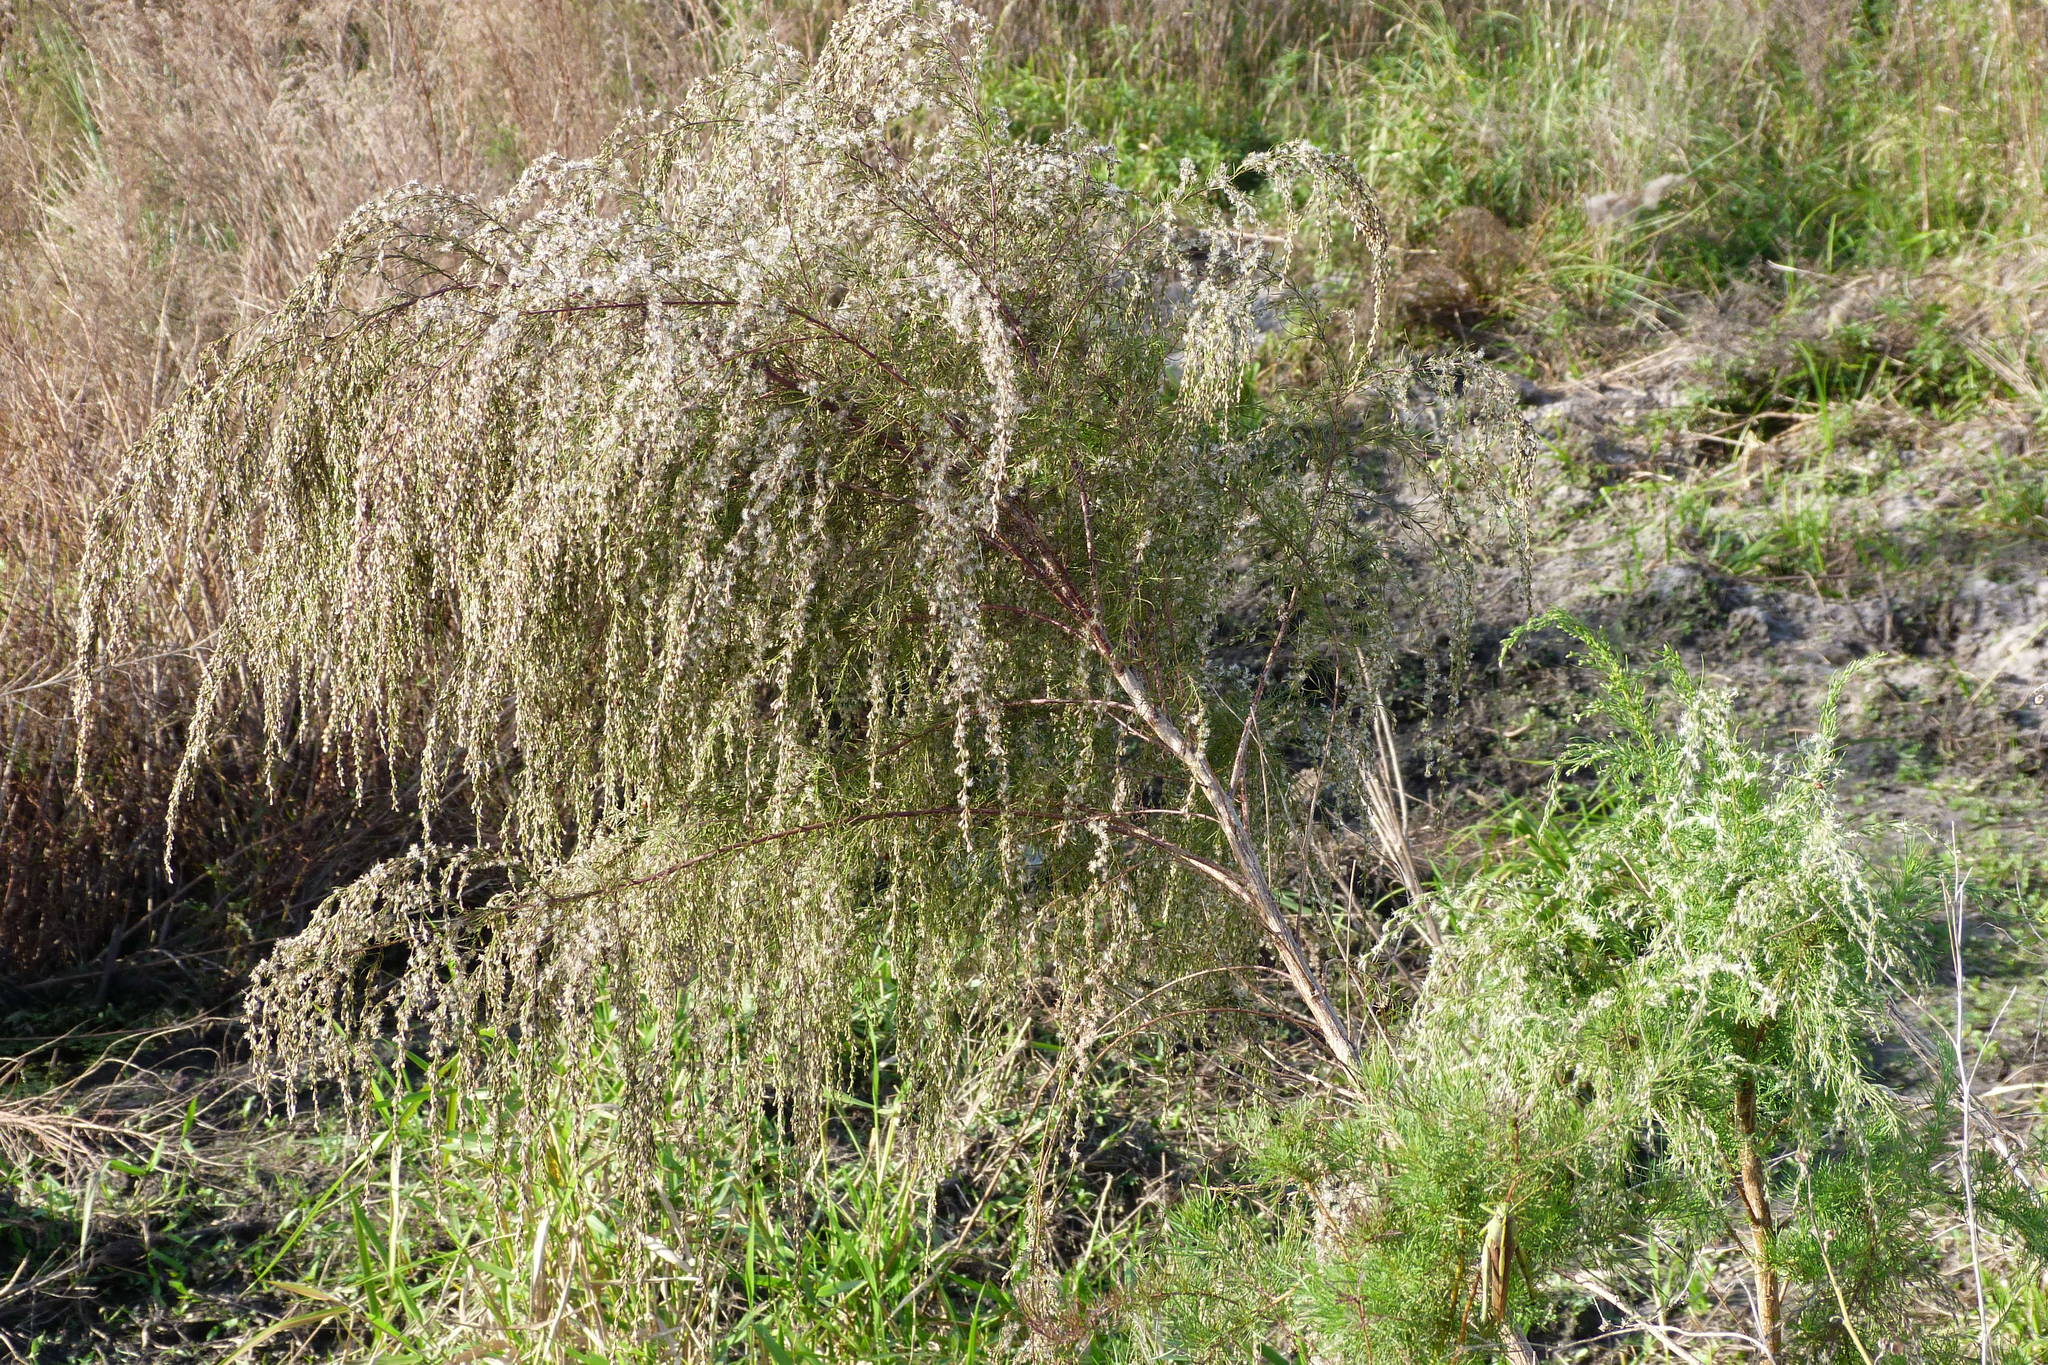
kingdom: Plantae
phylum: Tracheophyta
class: Magnoliopsida
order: Asterales
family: Asteraceae
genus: Eupatorium
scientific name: Eupatorium capillifolium
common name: Dog-fennel
